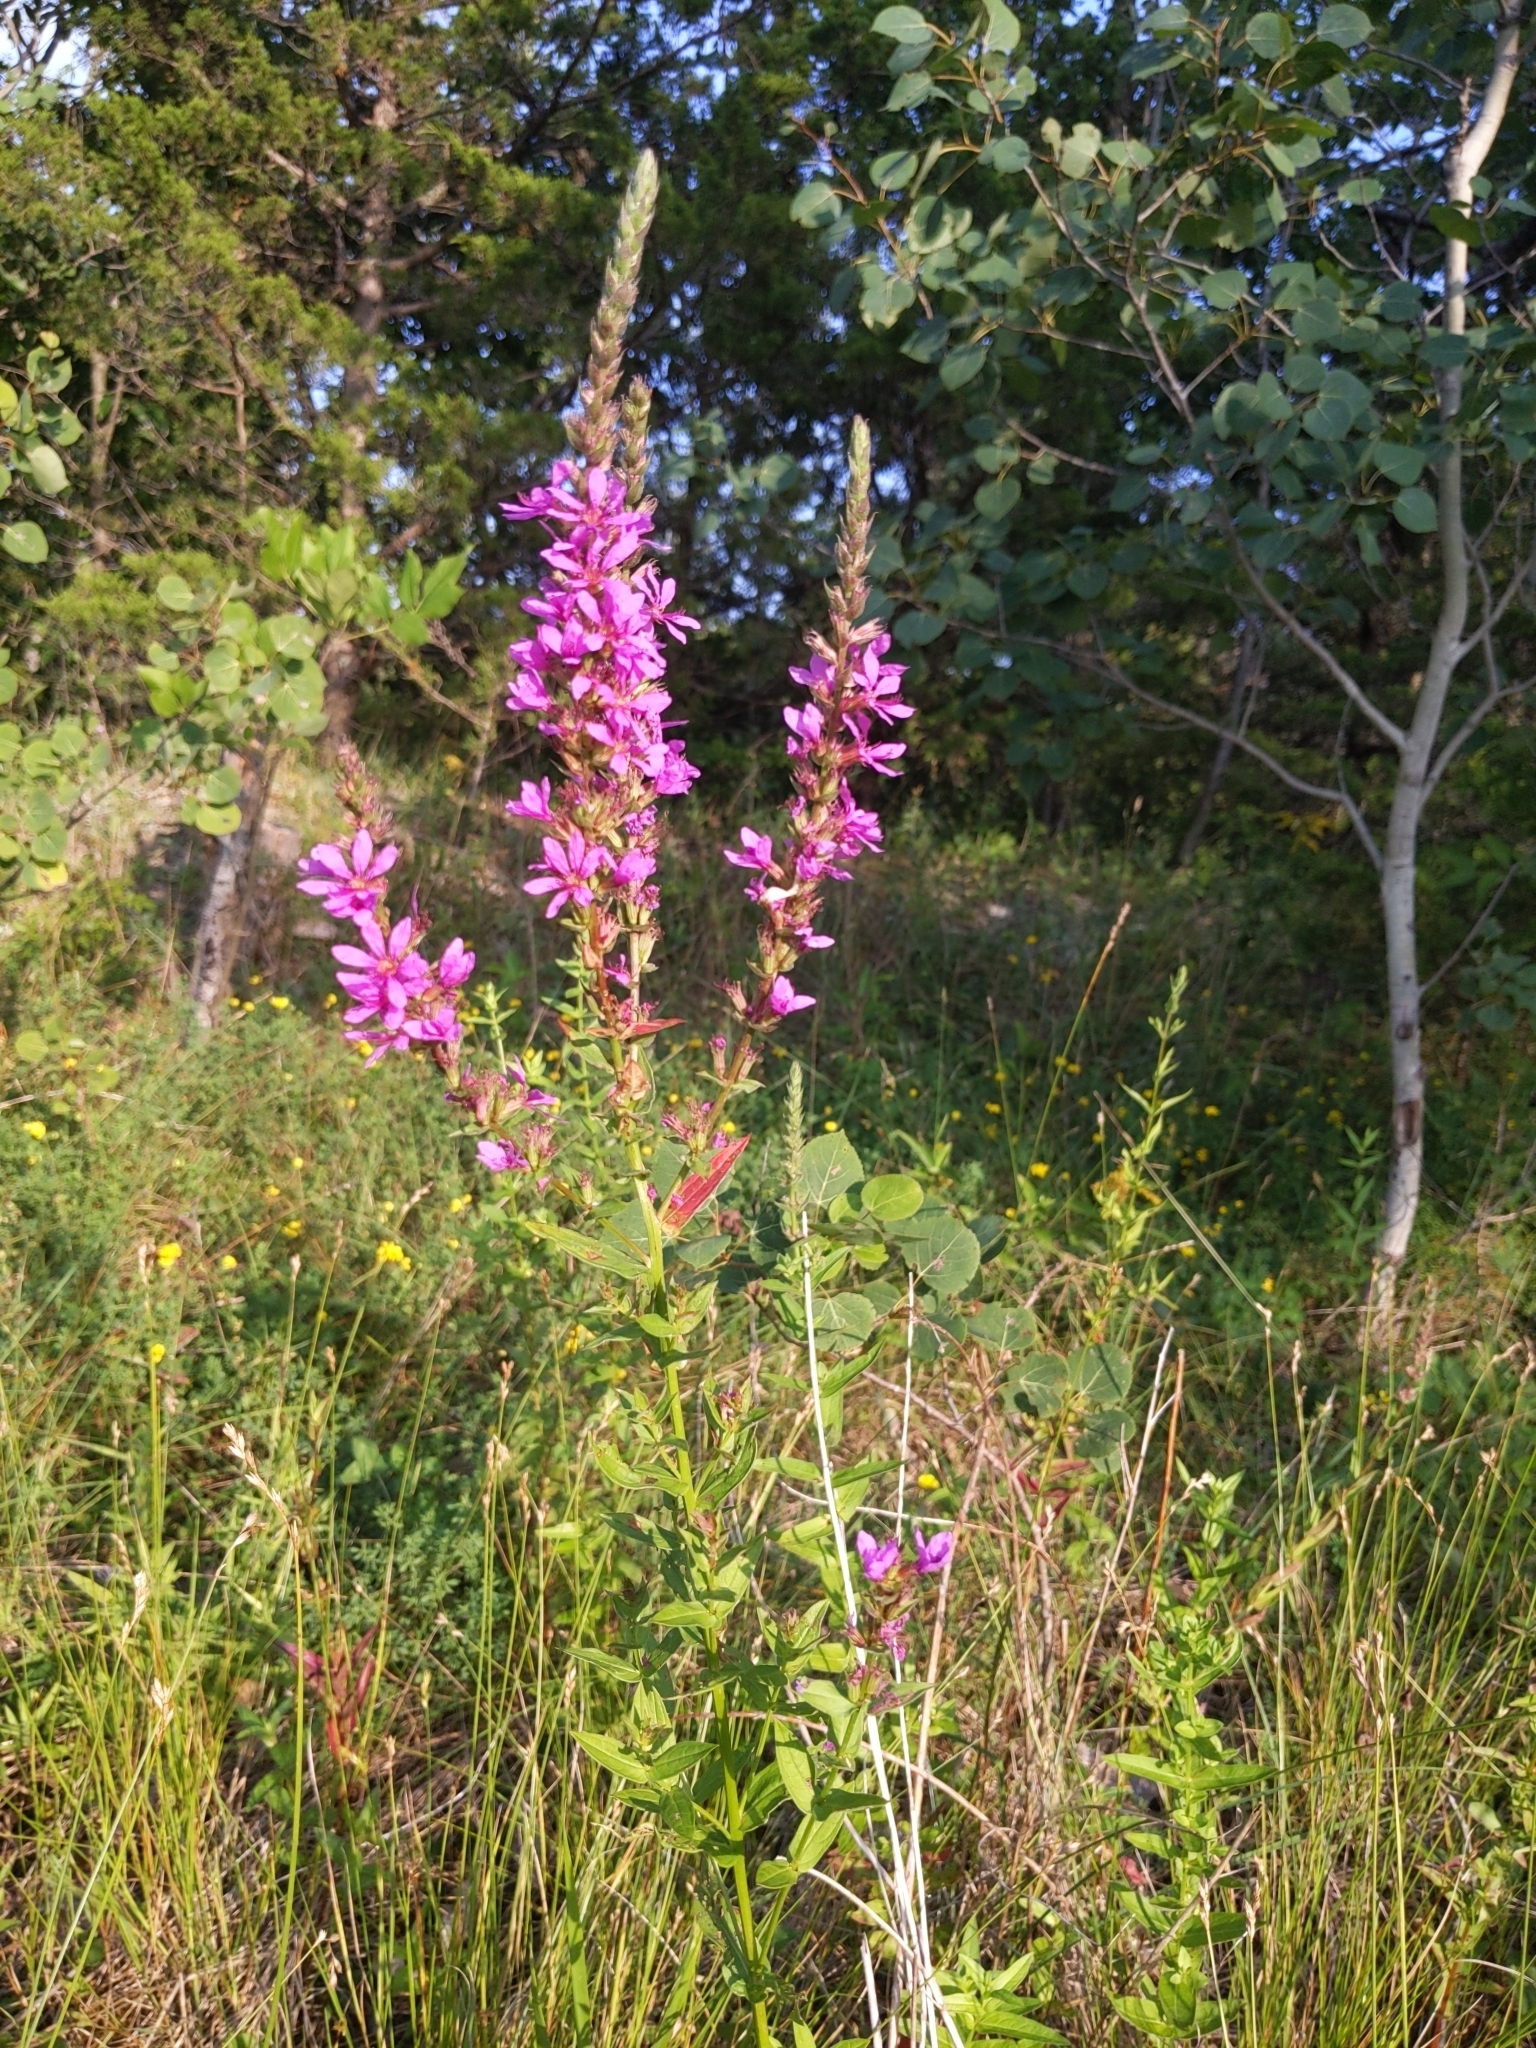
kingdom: Plantae
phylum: Tracheophyta
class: Magnoliopsida
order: Myrtales
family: Lythraceae
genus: Lythrum
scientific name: Lythrum salicaria
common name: Purple loosestrife
